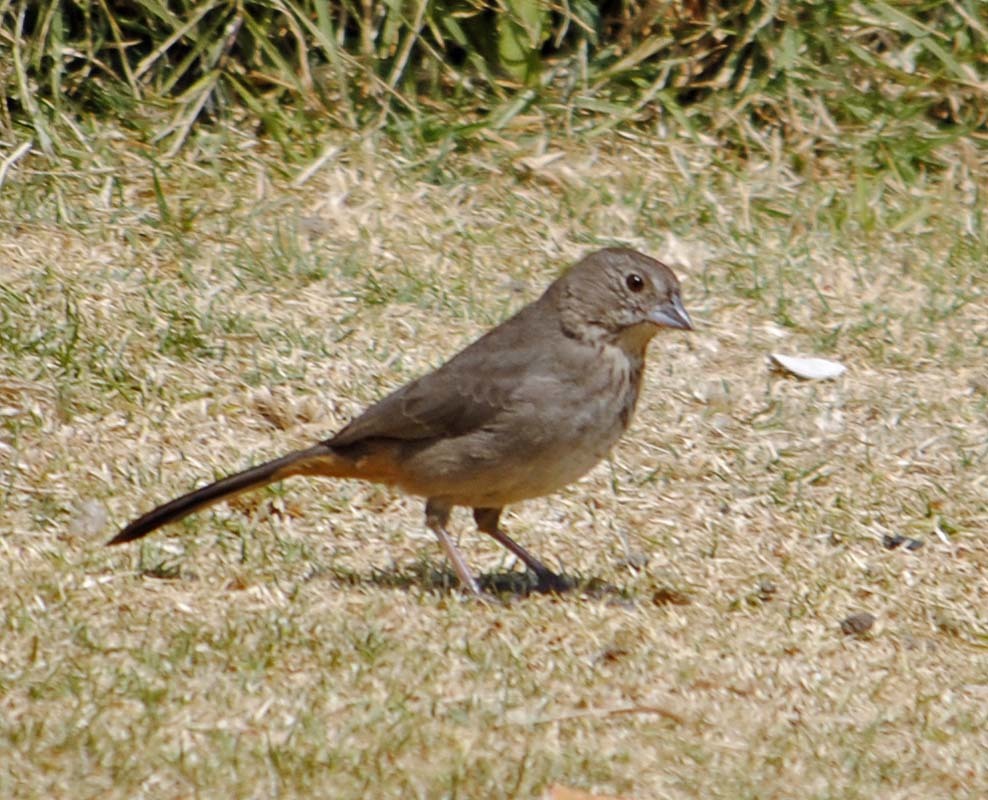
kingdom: Animalia
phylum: Chordata
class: Aves
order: Passeriformes
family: Passerellidae
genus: Melozone
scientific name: Melozone fusca
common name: Canyon towhee
